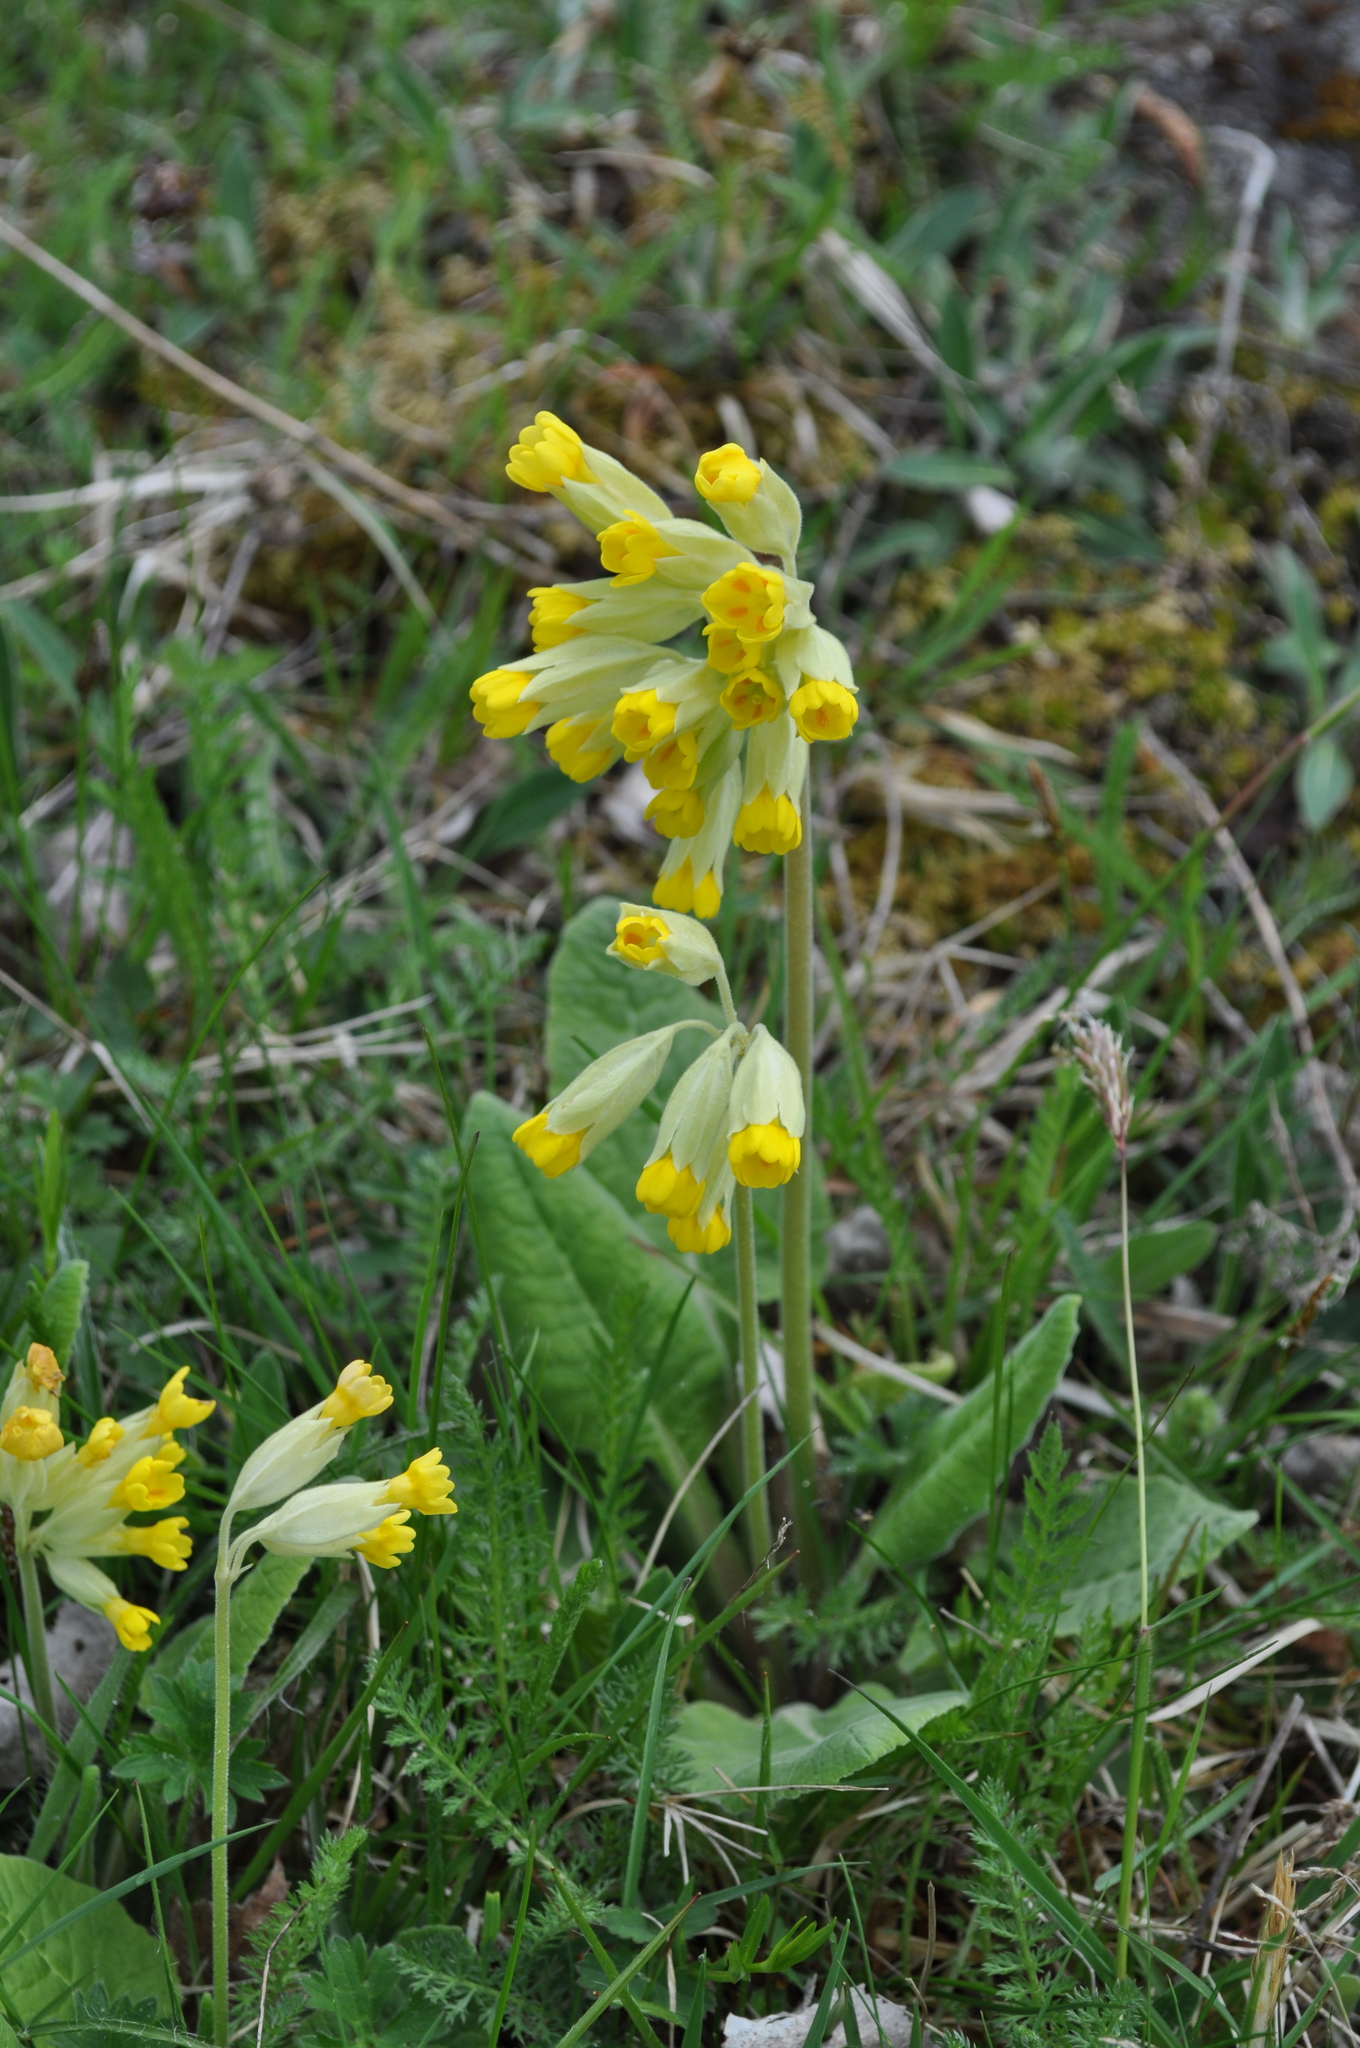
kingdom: Plantae
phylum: Tracheophyta
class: Magnoliopsida
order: Ericales
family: Primulaceae
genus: Primula
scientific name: Primula veris
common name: Cowslip
